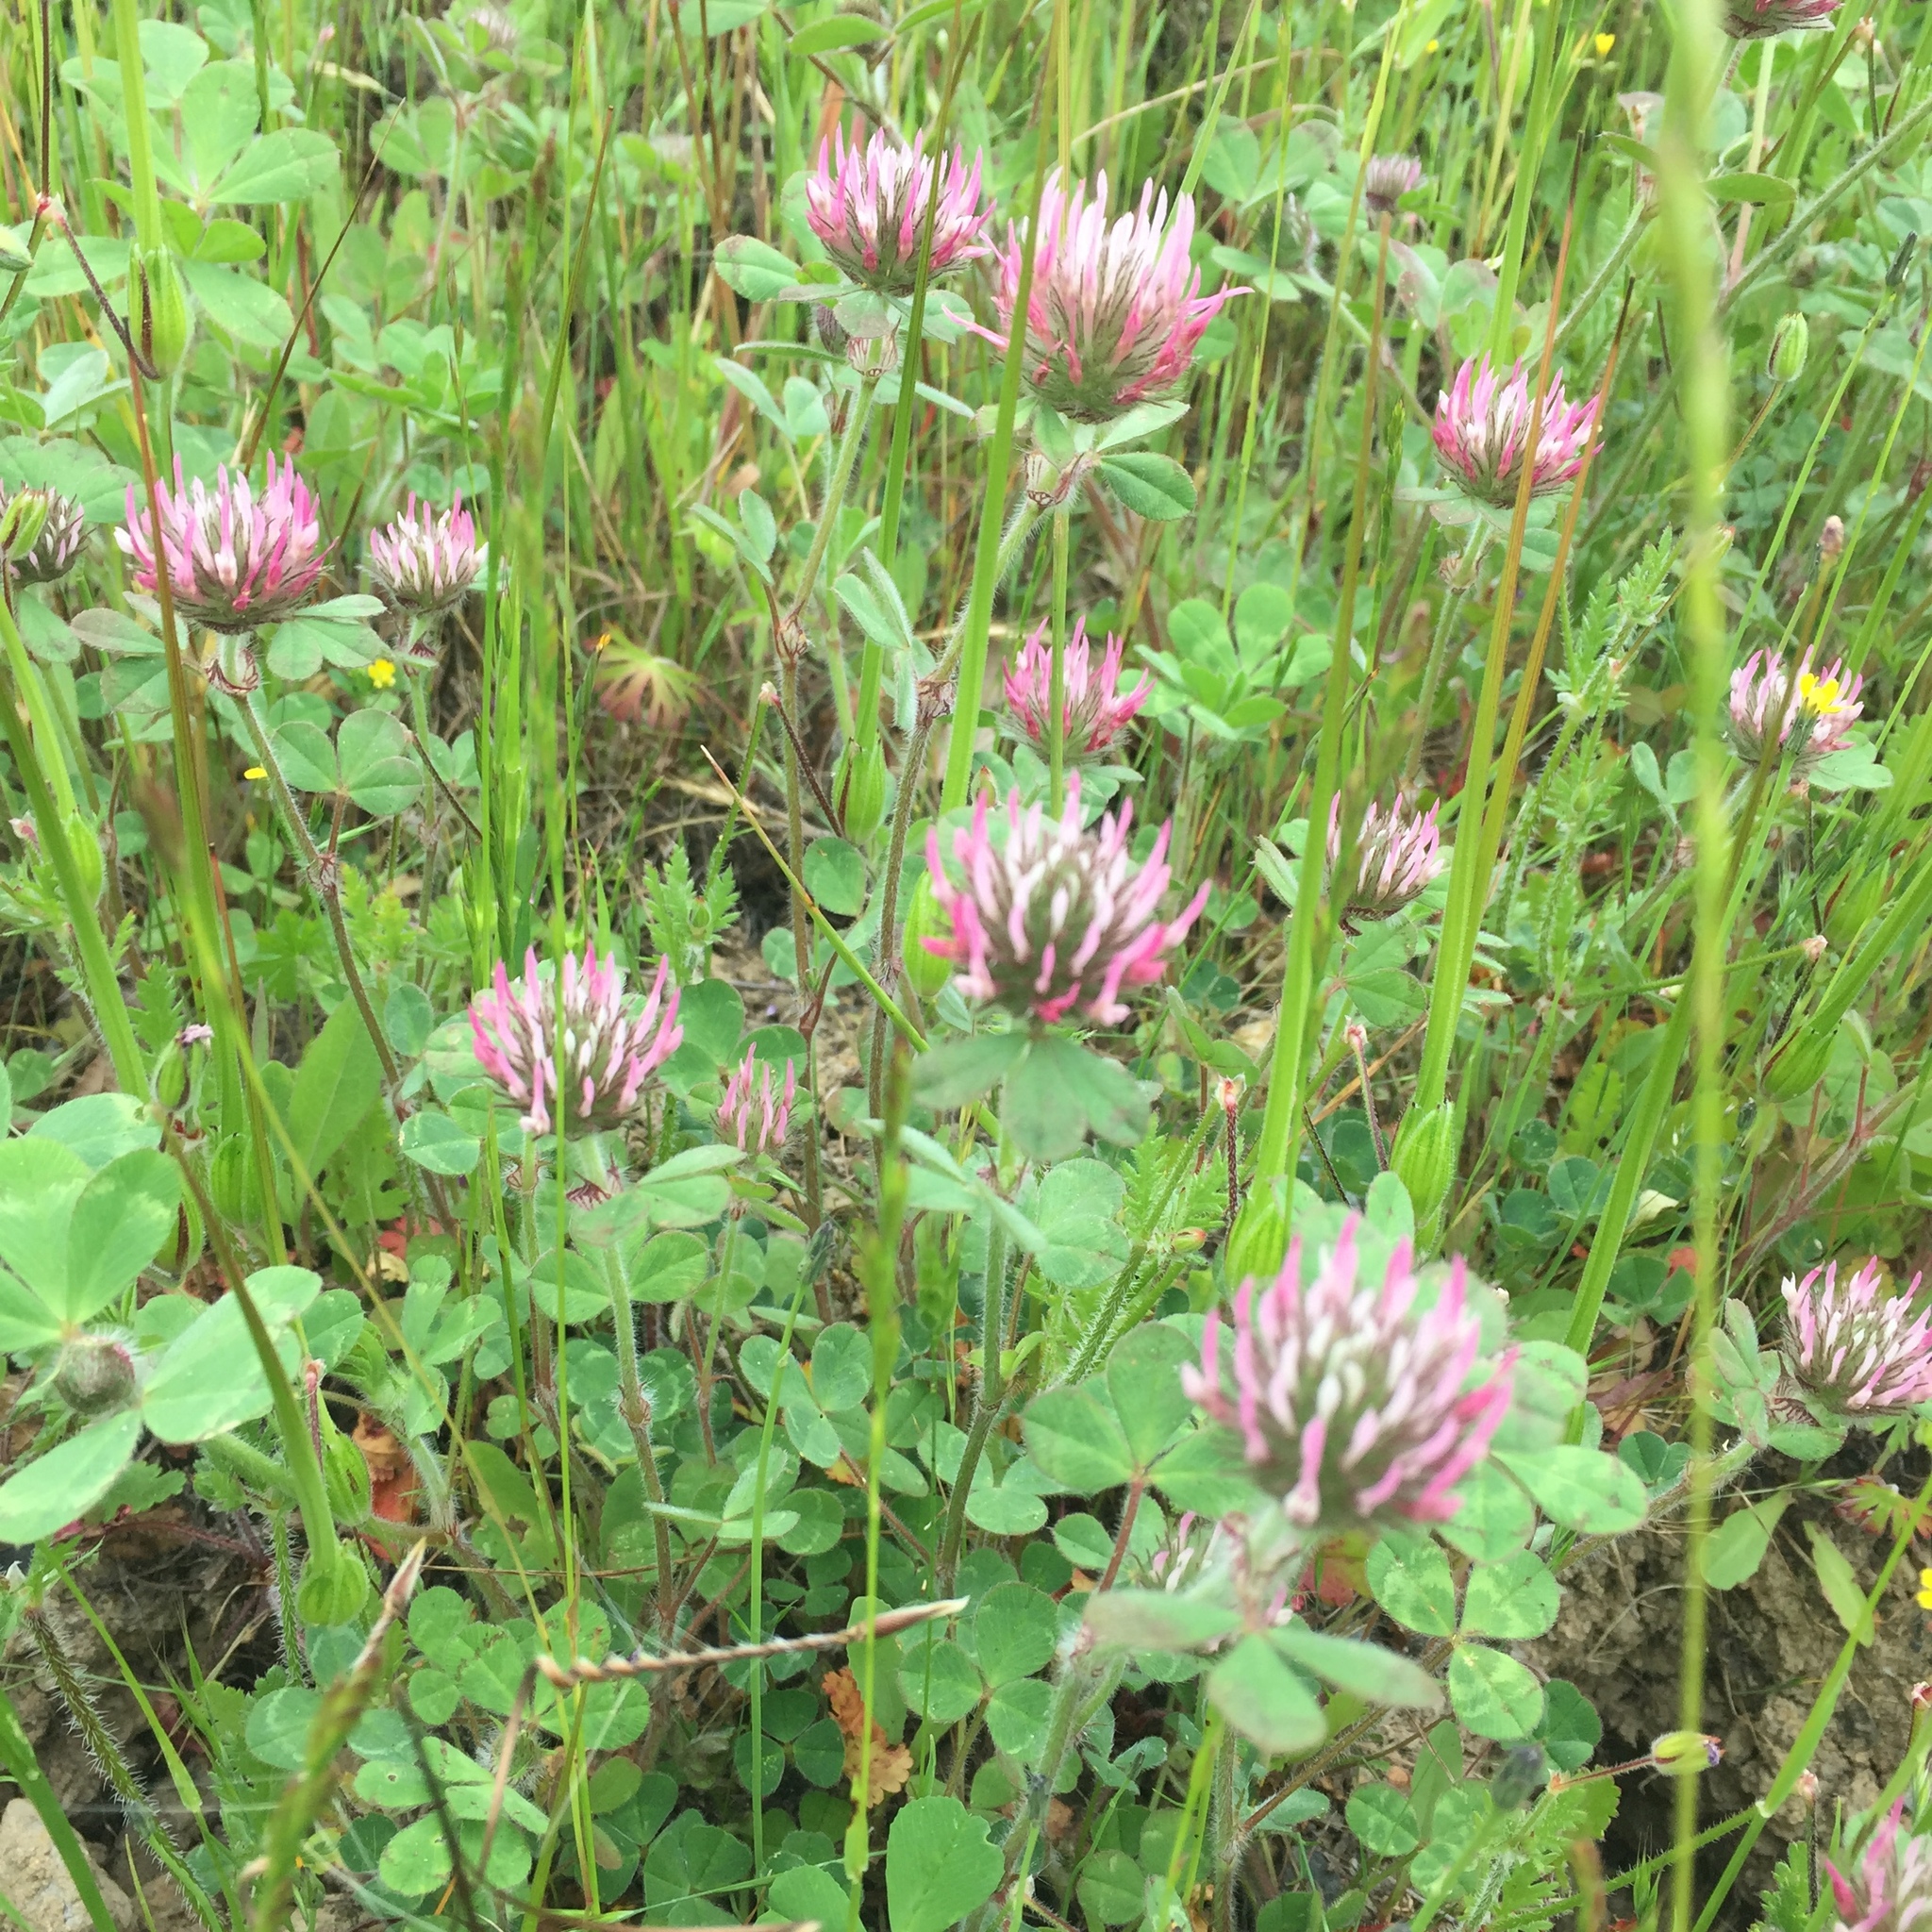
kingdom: Plantae
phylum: Tracheophyta
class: Magnoliopsida
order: Fabales
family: Fabaceae
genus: Trifolium
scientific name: Trifolium hirtum
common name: Rose clover
